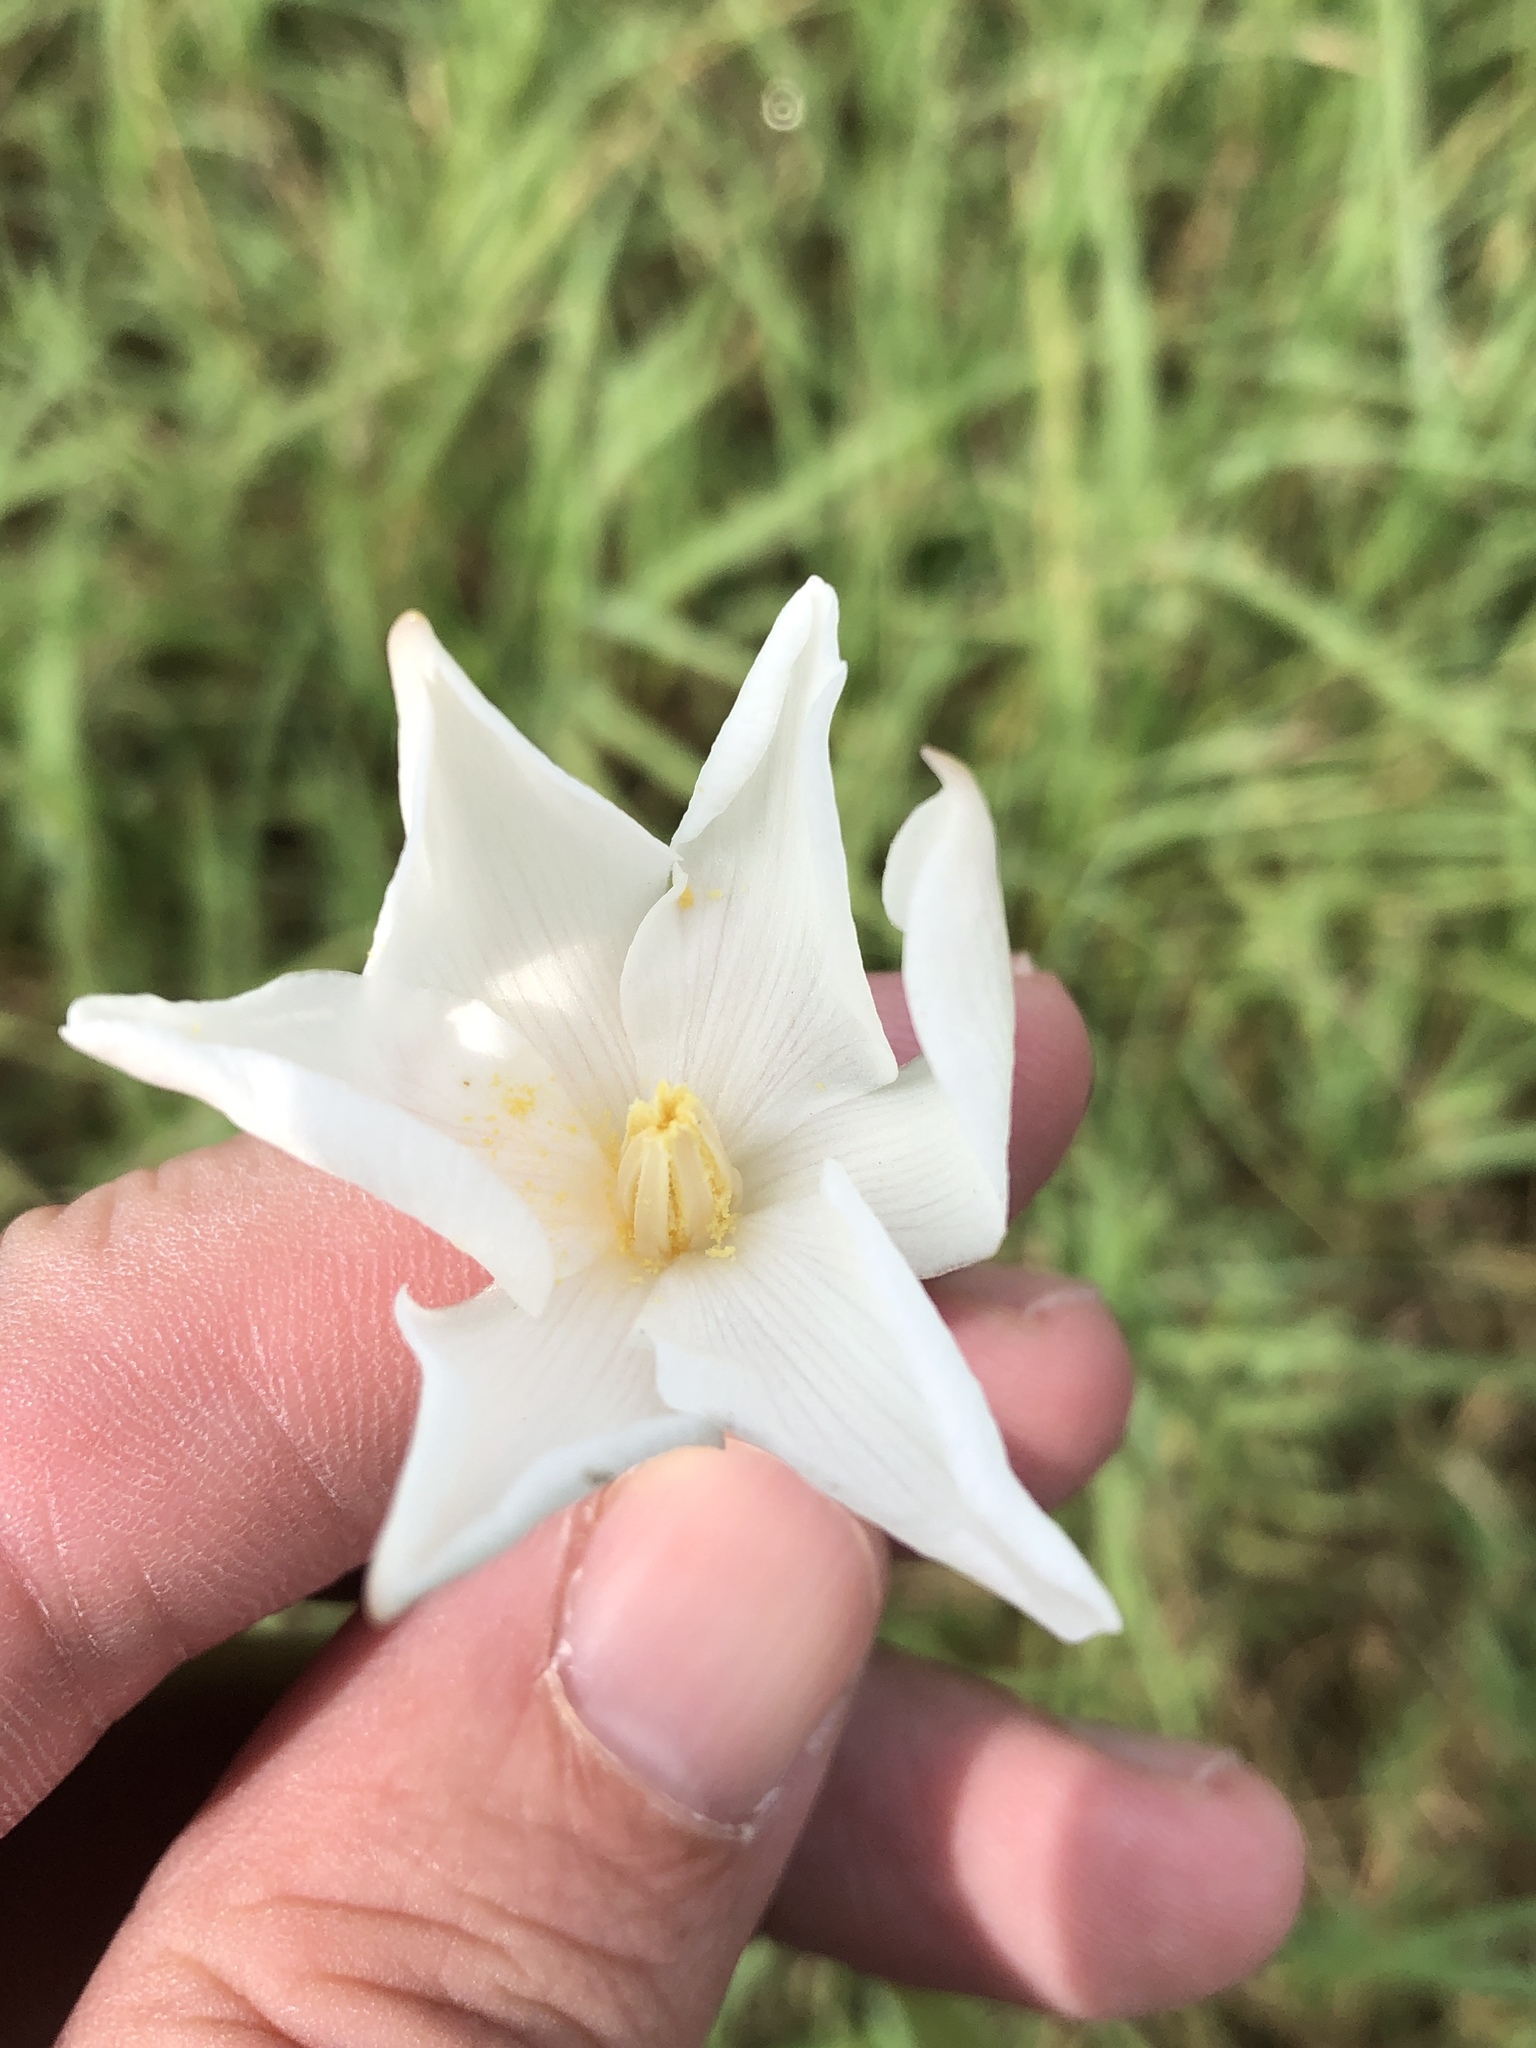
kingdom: Plantae
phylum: Tracheophyta
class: Liliopsida
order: Asparagales
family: Amaryllidaceae
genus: Zephyranthes
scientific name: Zephyranthes chlorosolen
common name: Evening rain-lily
